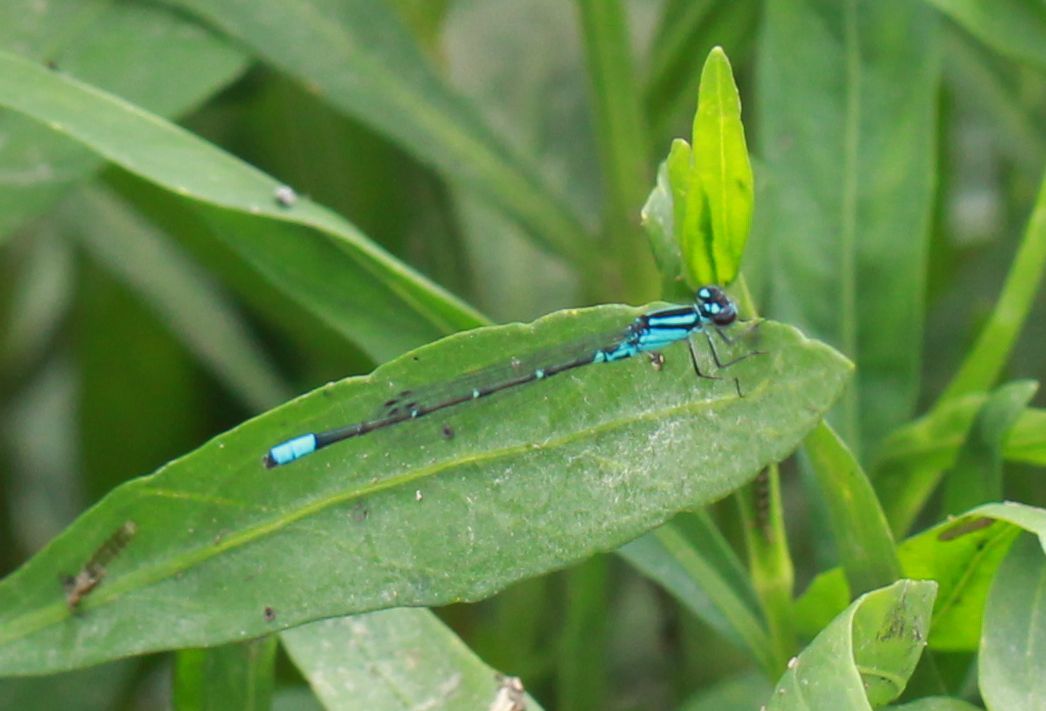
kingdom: Animalia
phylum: Arthropoda
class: Insecta
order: Odonata
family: Coenagrionidae
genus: Enallagma
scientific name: Enallagma geminatum
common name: Skimming bluet
